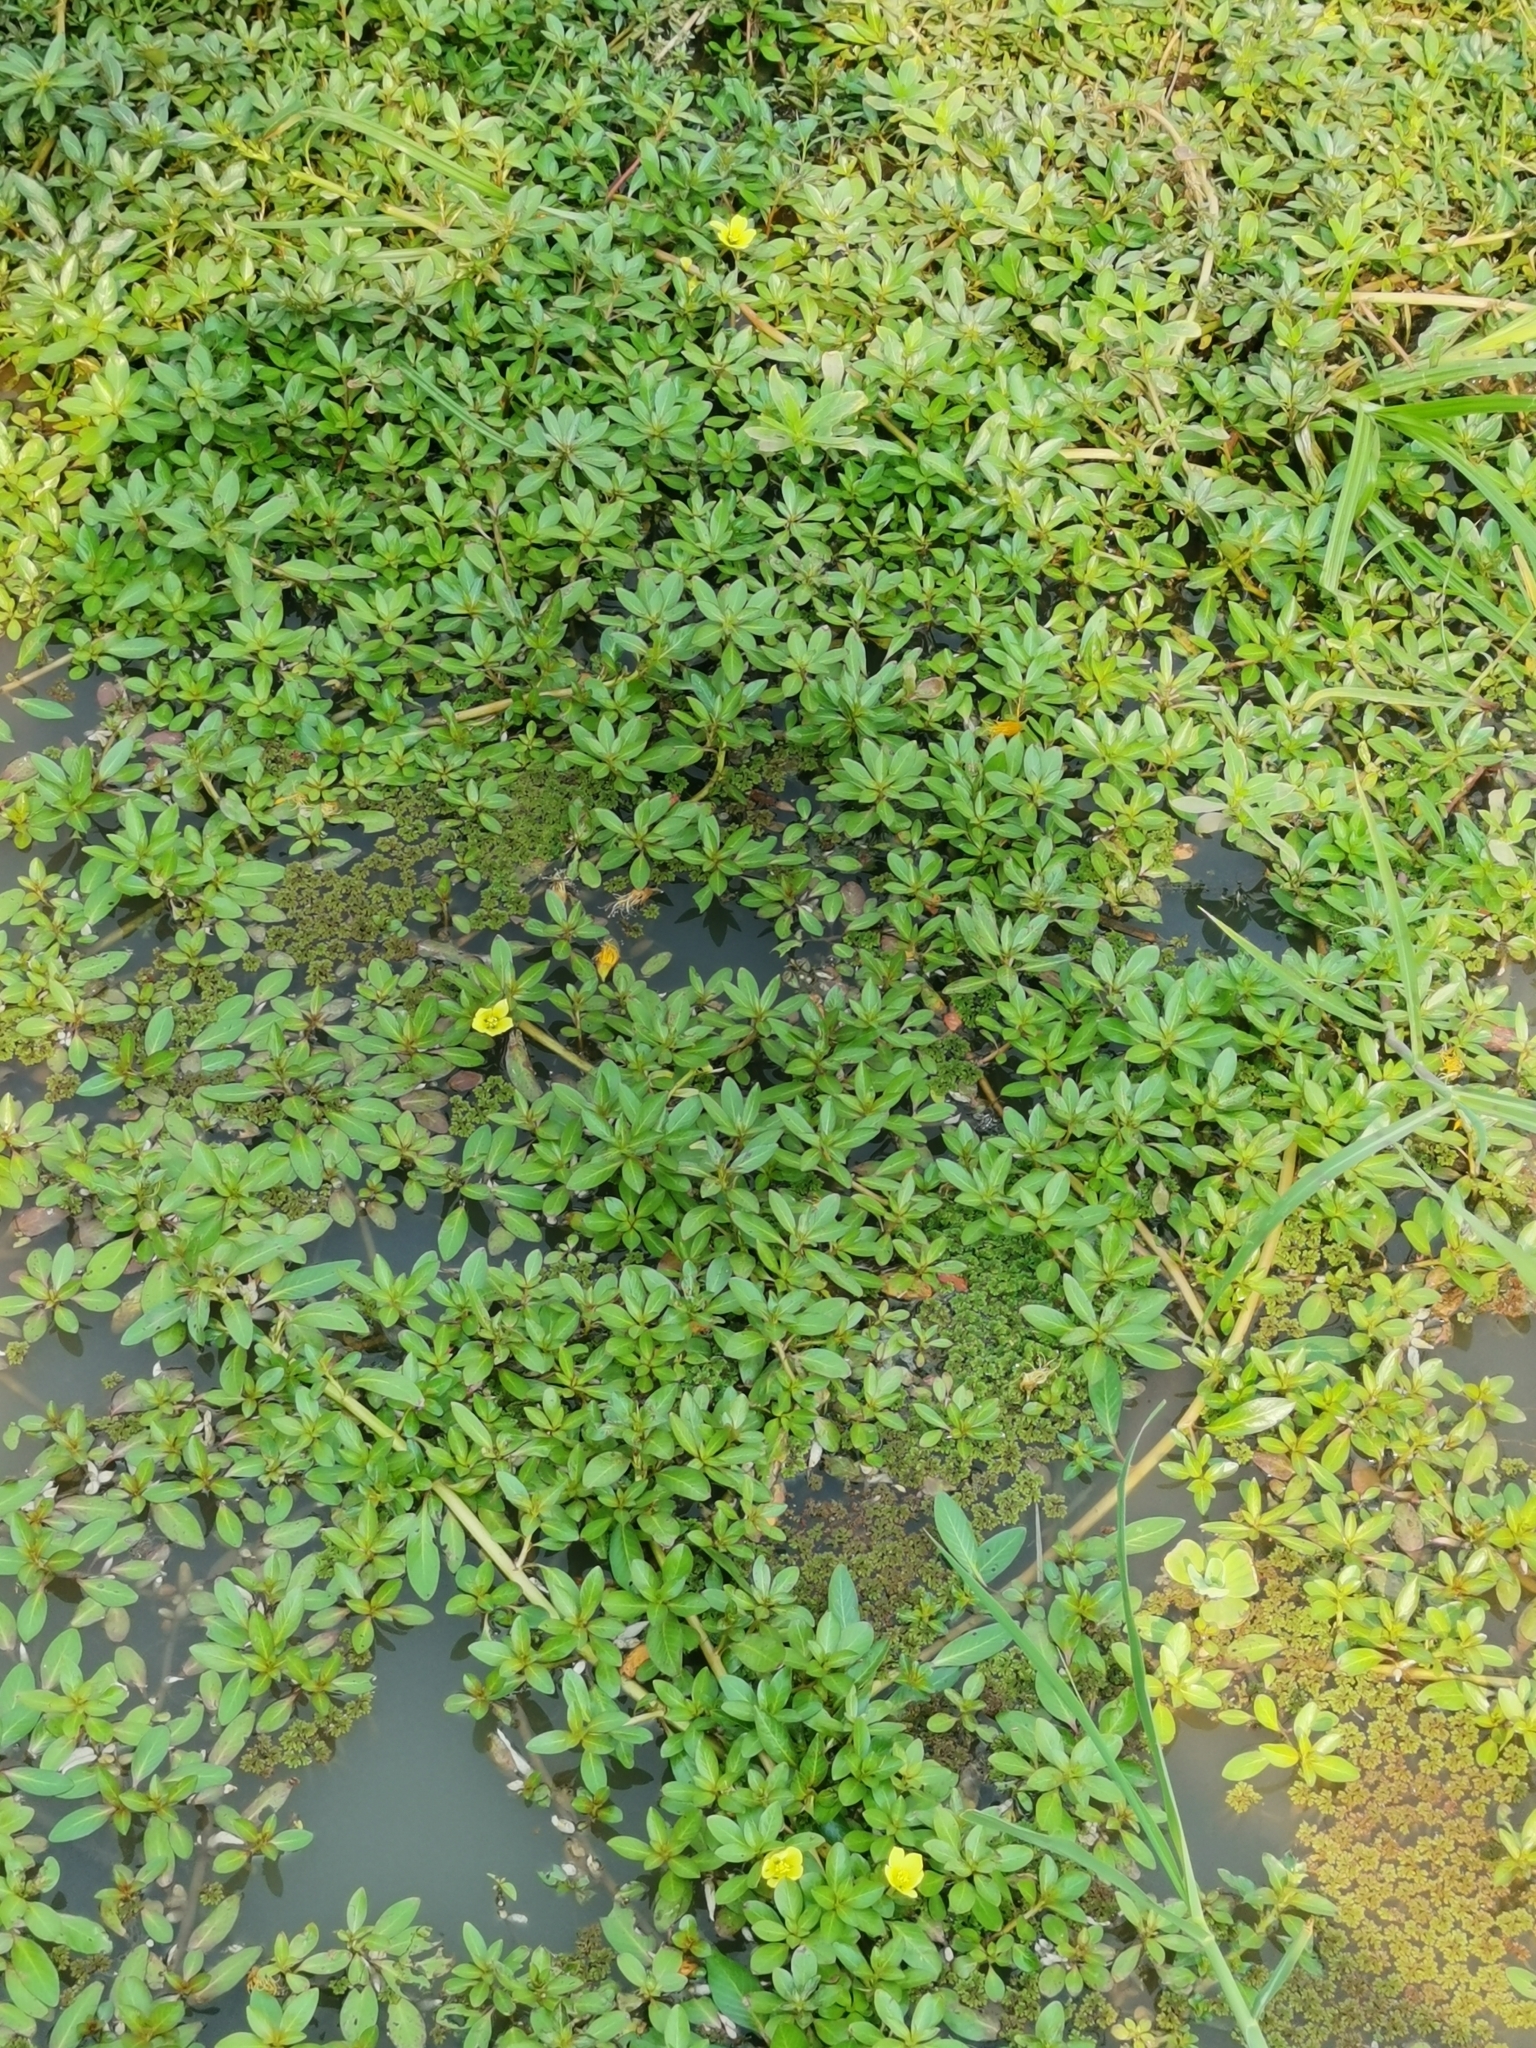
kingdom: Plantae
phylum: Tracheophyta
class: Magnoliopsida
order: Myrtales
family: Onagraceae
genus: Ludwigia
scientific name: Ludwigia peploides
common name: Floating primrose-willow
